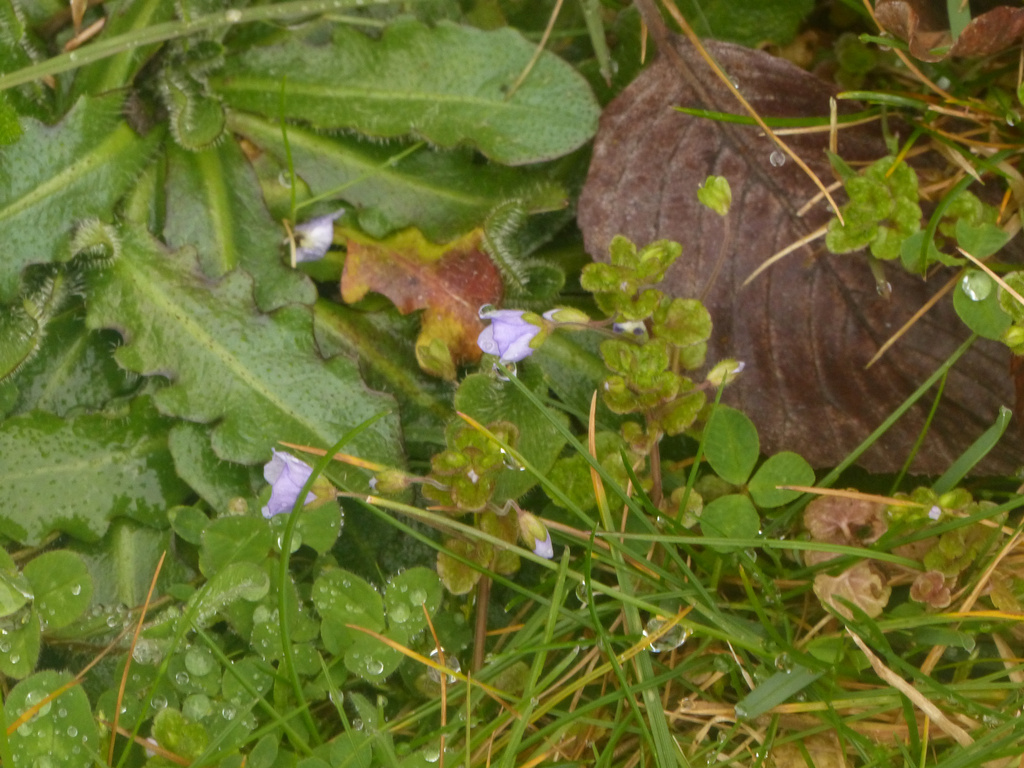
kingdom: Plantae
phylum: Tracheophyta
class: Magnoliopsida
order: Lamiales
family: Plantaginaceae
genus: Veronica
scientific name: Veronica filiformis
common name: Slender speedwell
